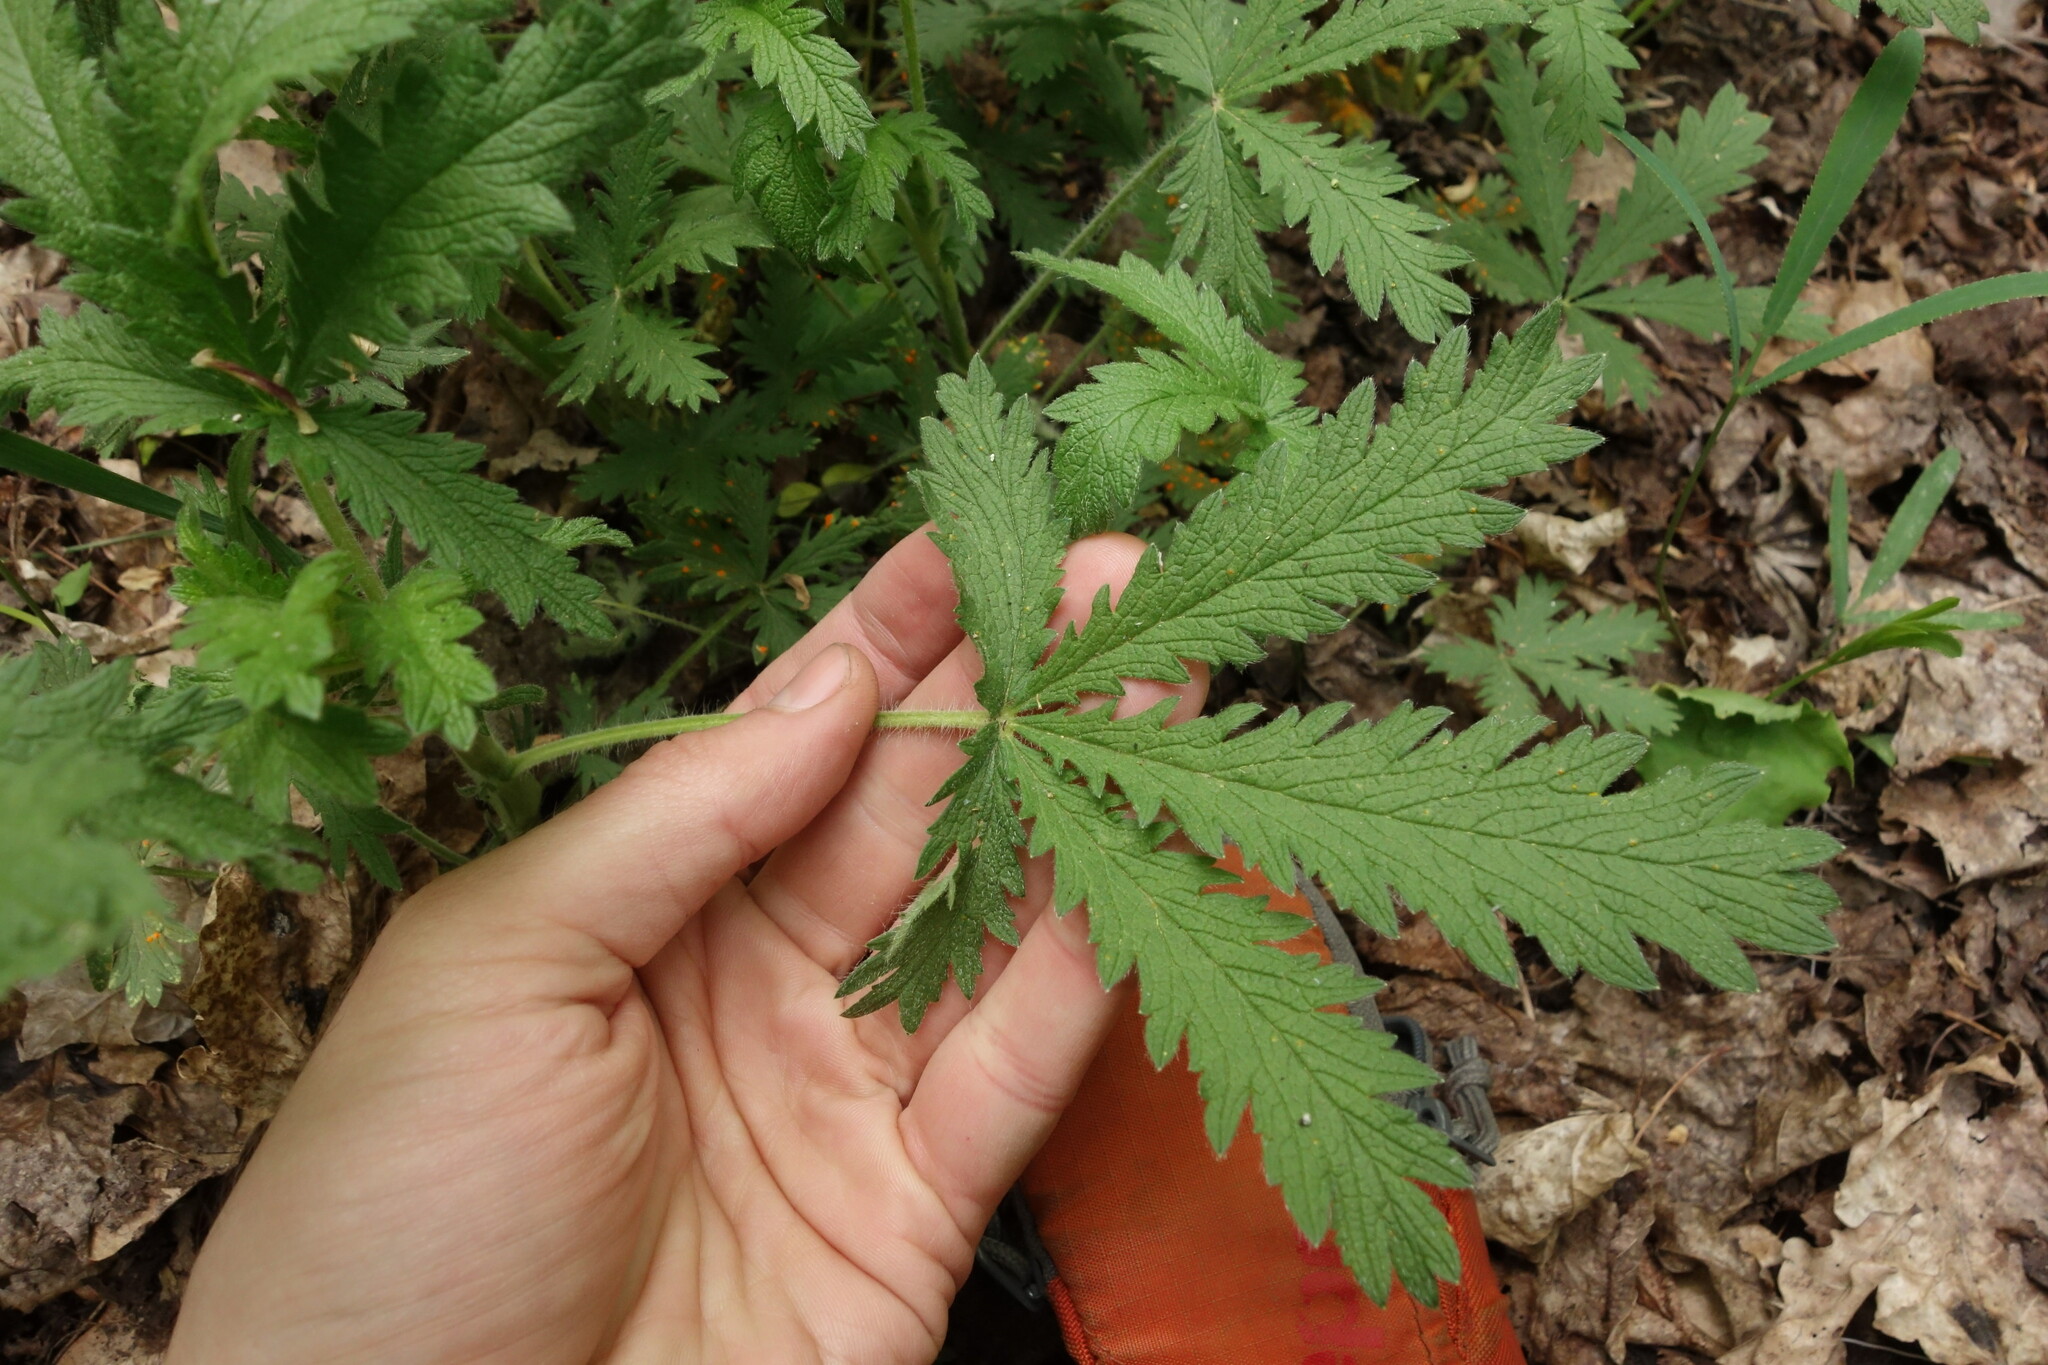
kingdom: Plantae
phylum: Tracheophyta
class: Magnoliopsida
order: Rosales
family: Rosaceae
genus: Potentilla
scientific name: Potentilla recta
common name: Sulphur cinquefoil
